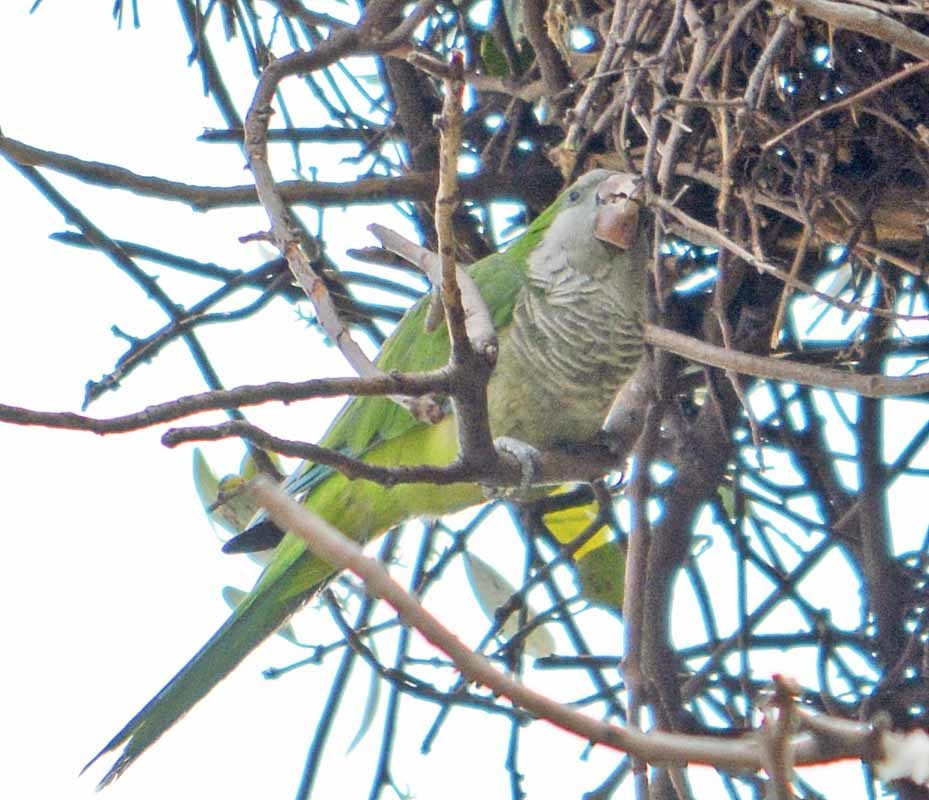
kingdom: Animalia
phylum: Chordata
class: Aves
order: Psittaciformes
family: Psittacidae
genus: Myiopsitta
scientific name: Myiopsitta monachus
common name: Monk parakeet
